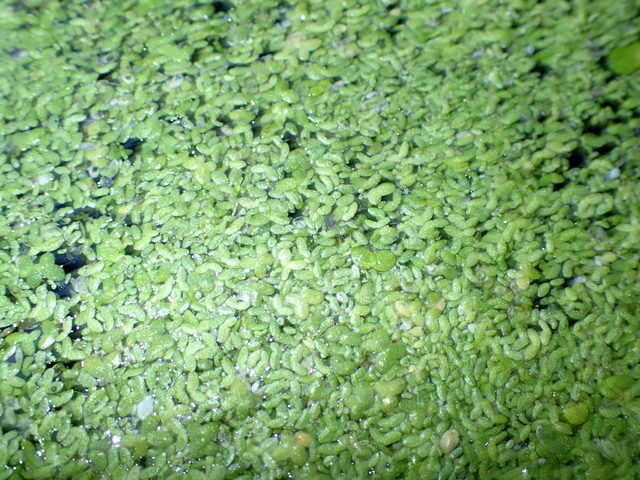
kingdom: Plantae
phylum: Tracheophyta
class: Liliopsida
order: Alismatales
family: Araceae
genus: Lemna
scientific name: Lemna minor
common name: Common duckweed
